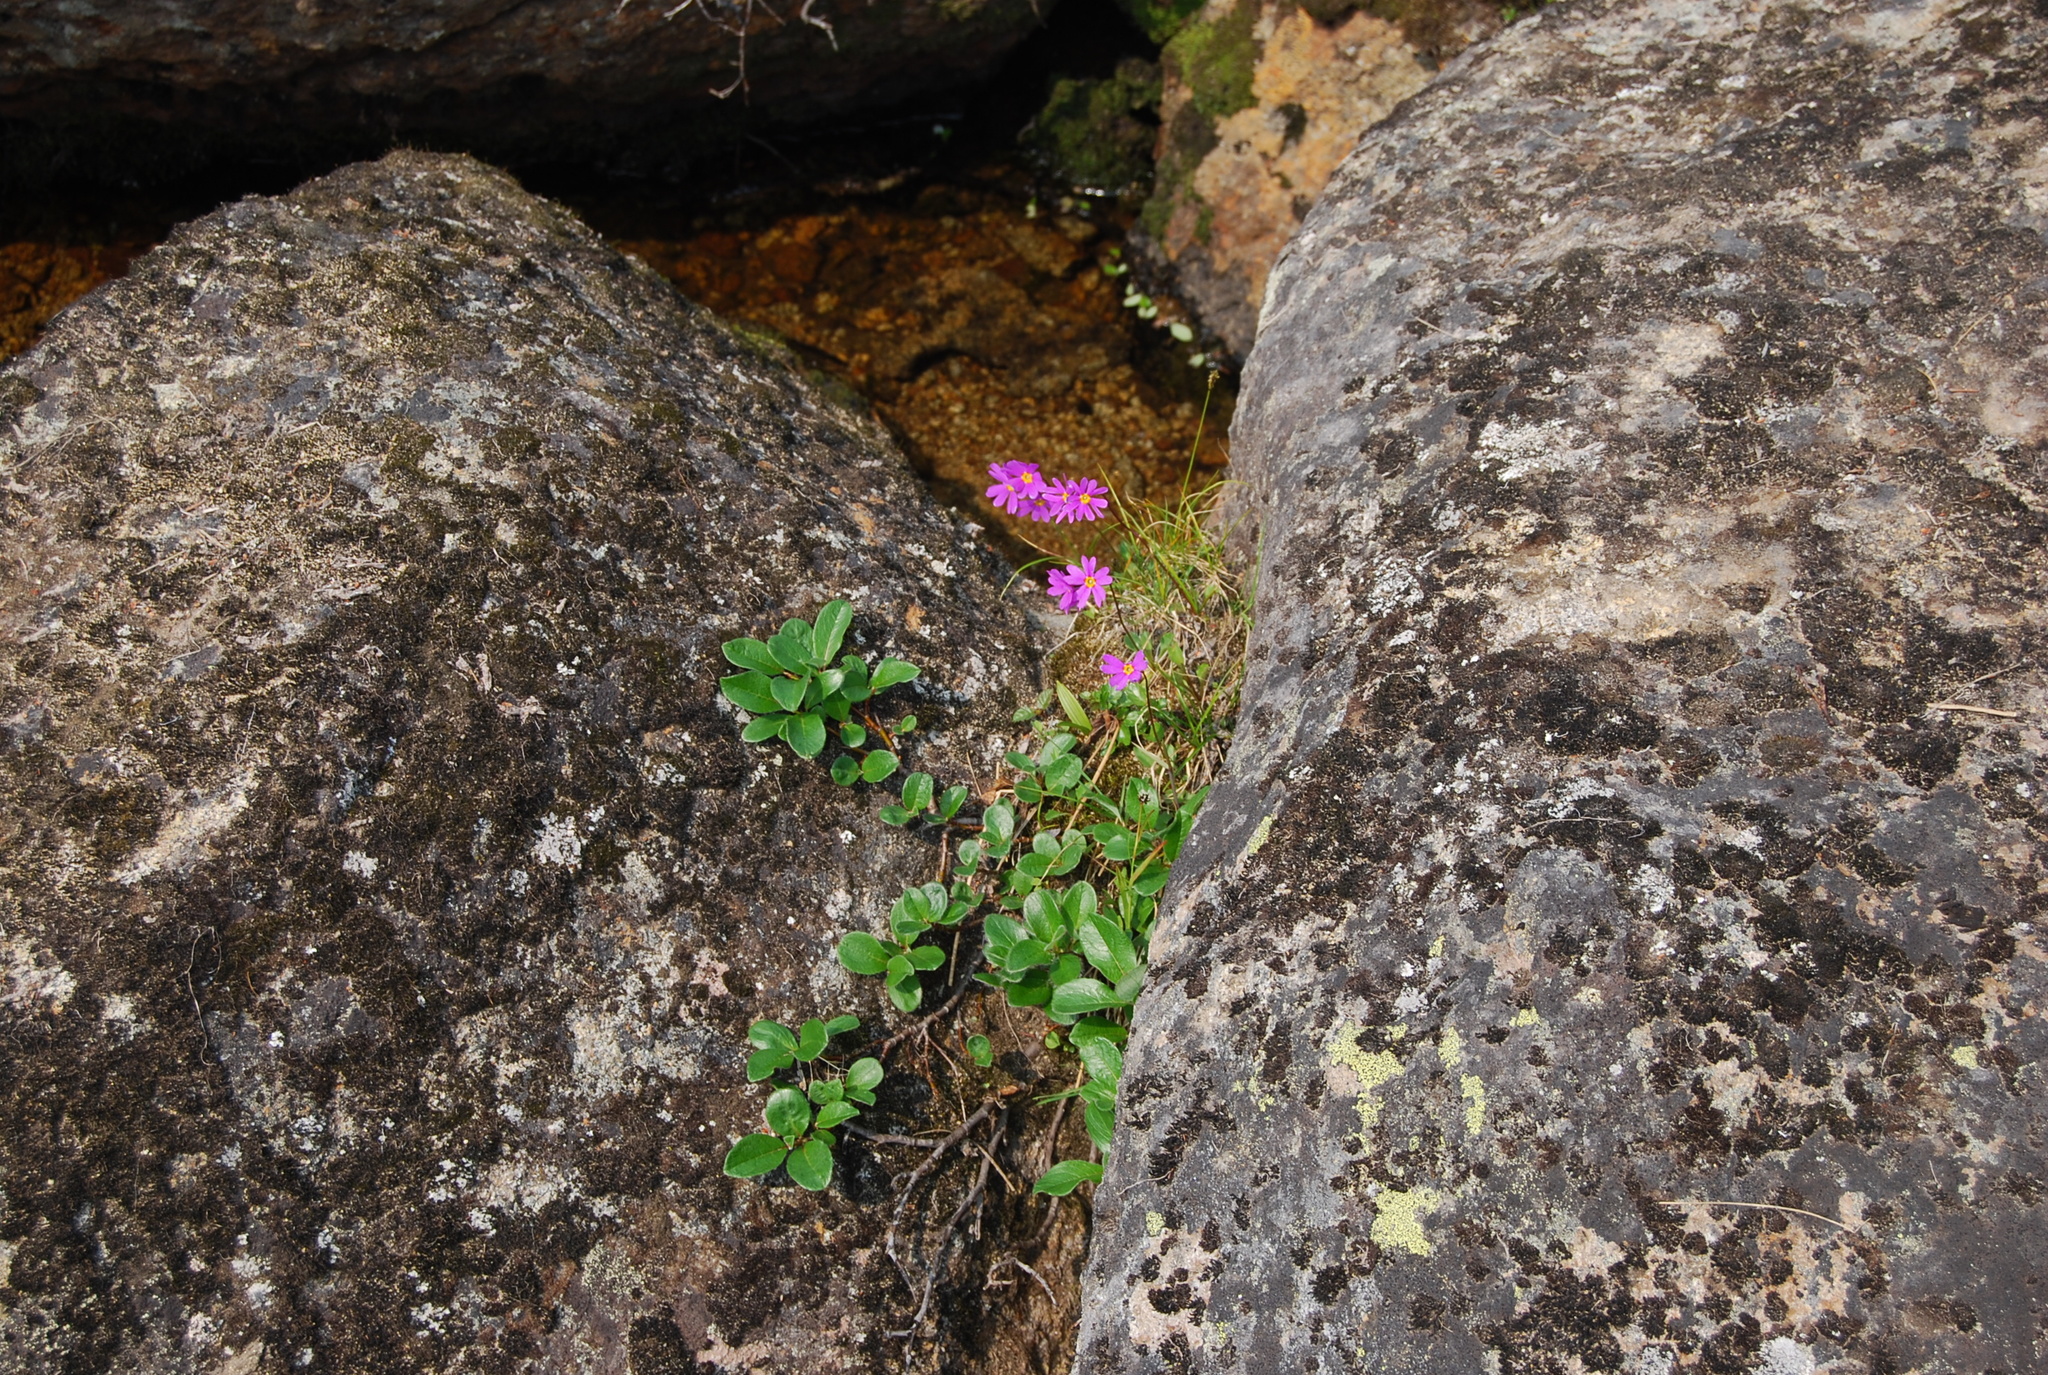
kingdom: Plantae
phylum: Tracheophyta
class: Magnoliopsida
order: Ericales
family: Primulaceae
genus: Primula
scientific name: Primula cuneifolia
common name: Wedge-leaved primrose
